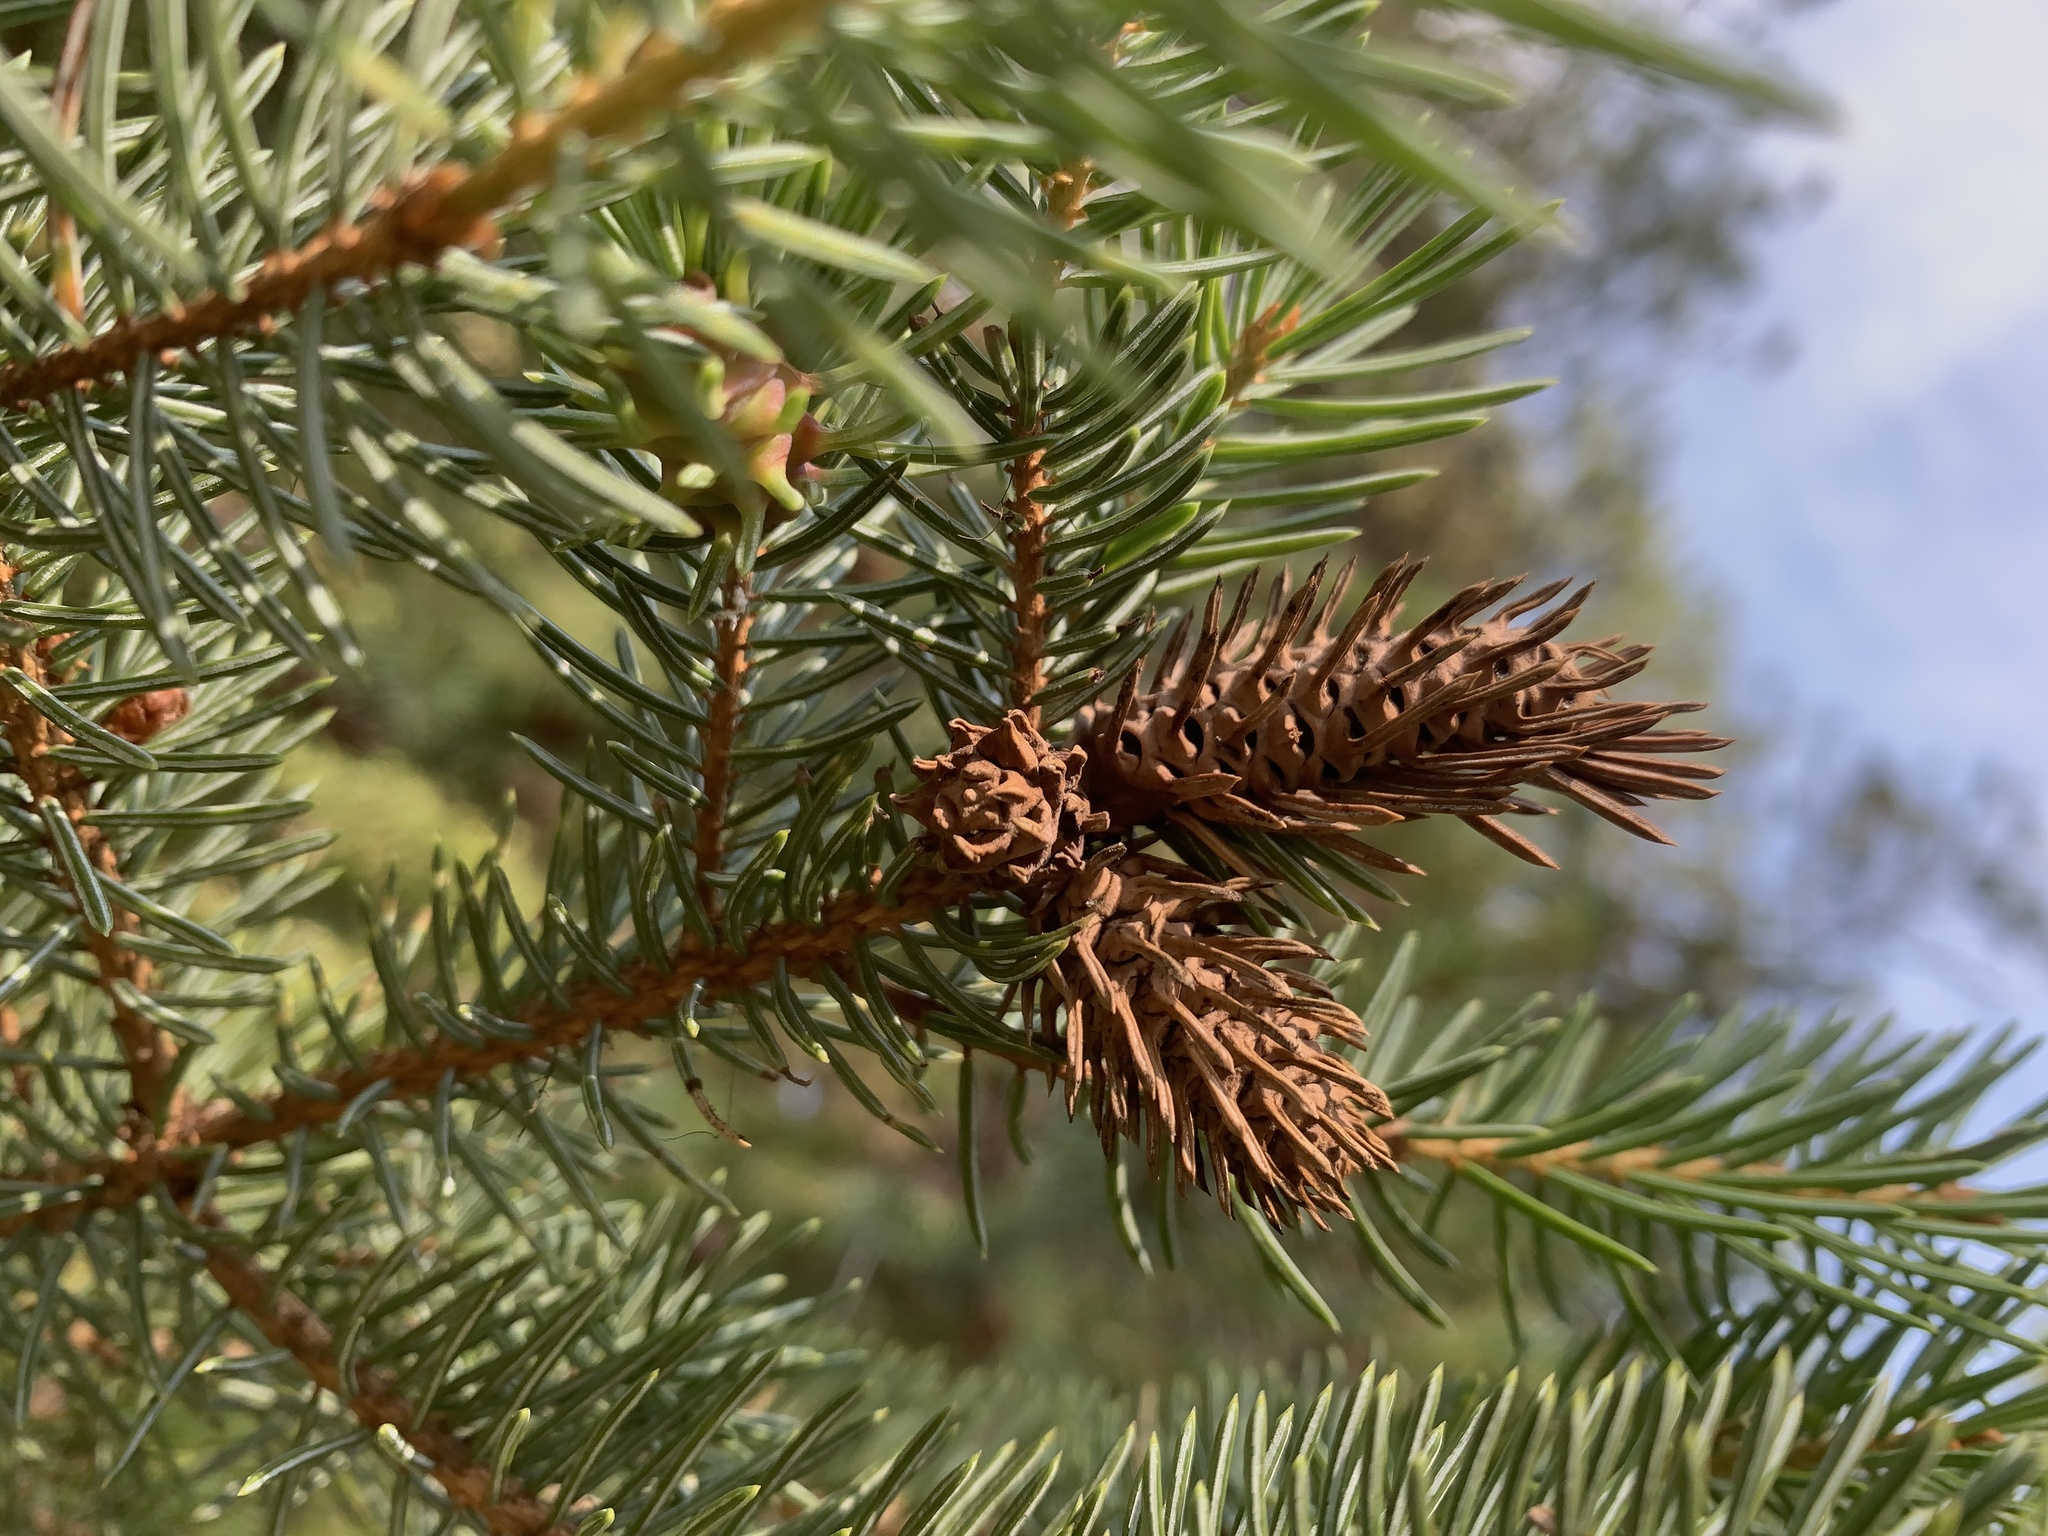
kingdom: Animalia
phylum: Arthropoda
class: Insecta
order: Hemiptera
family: Adelgidae
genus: Adelges
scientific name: Adelges cooleyi
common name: Cooley spruce gall adelgid
